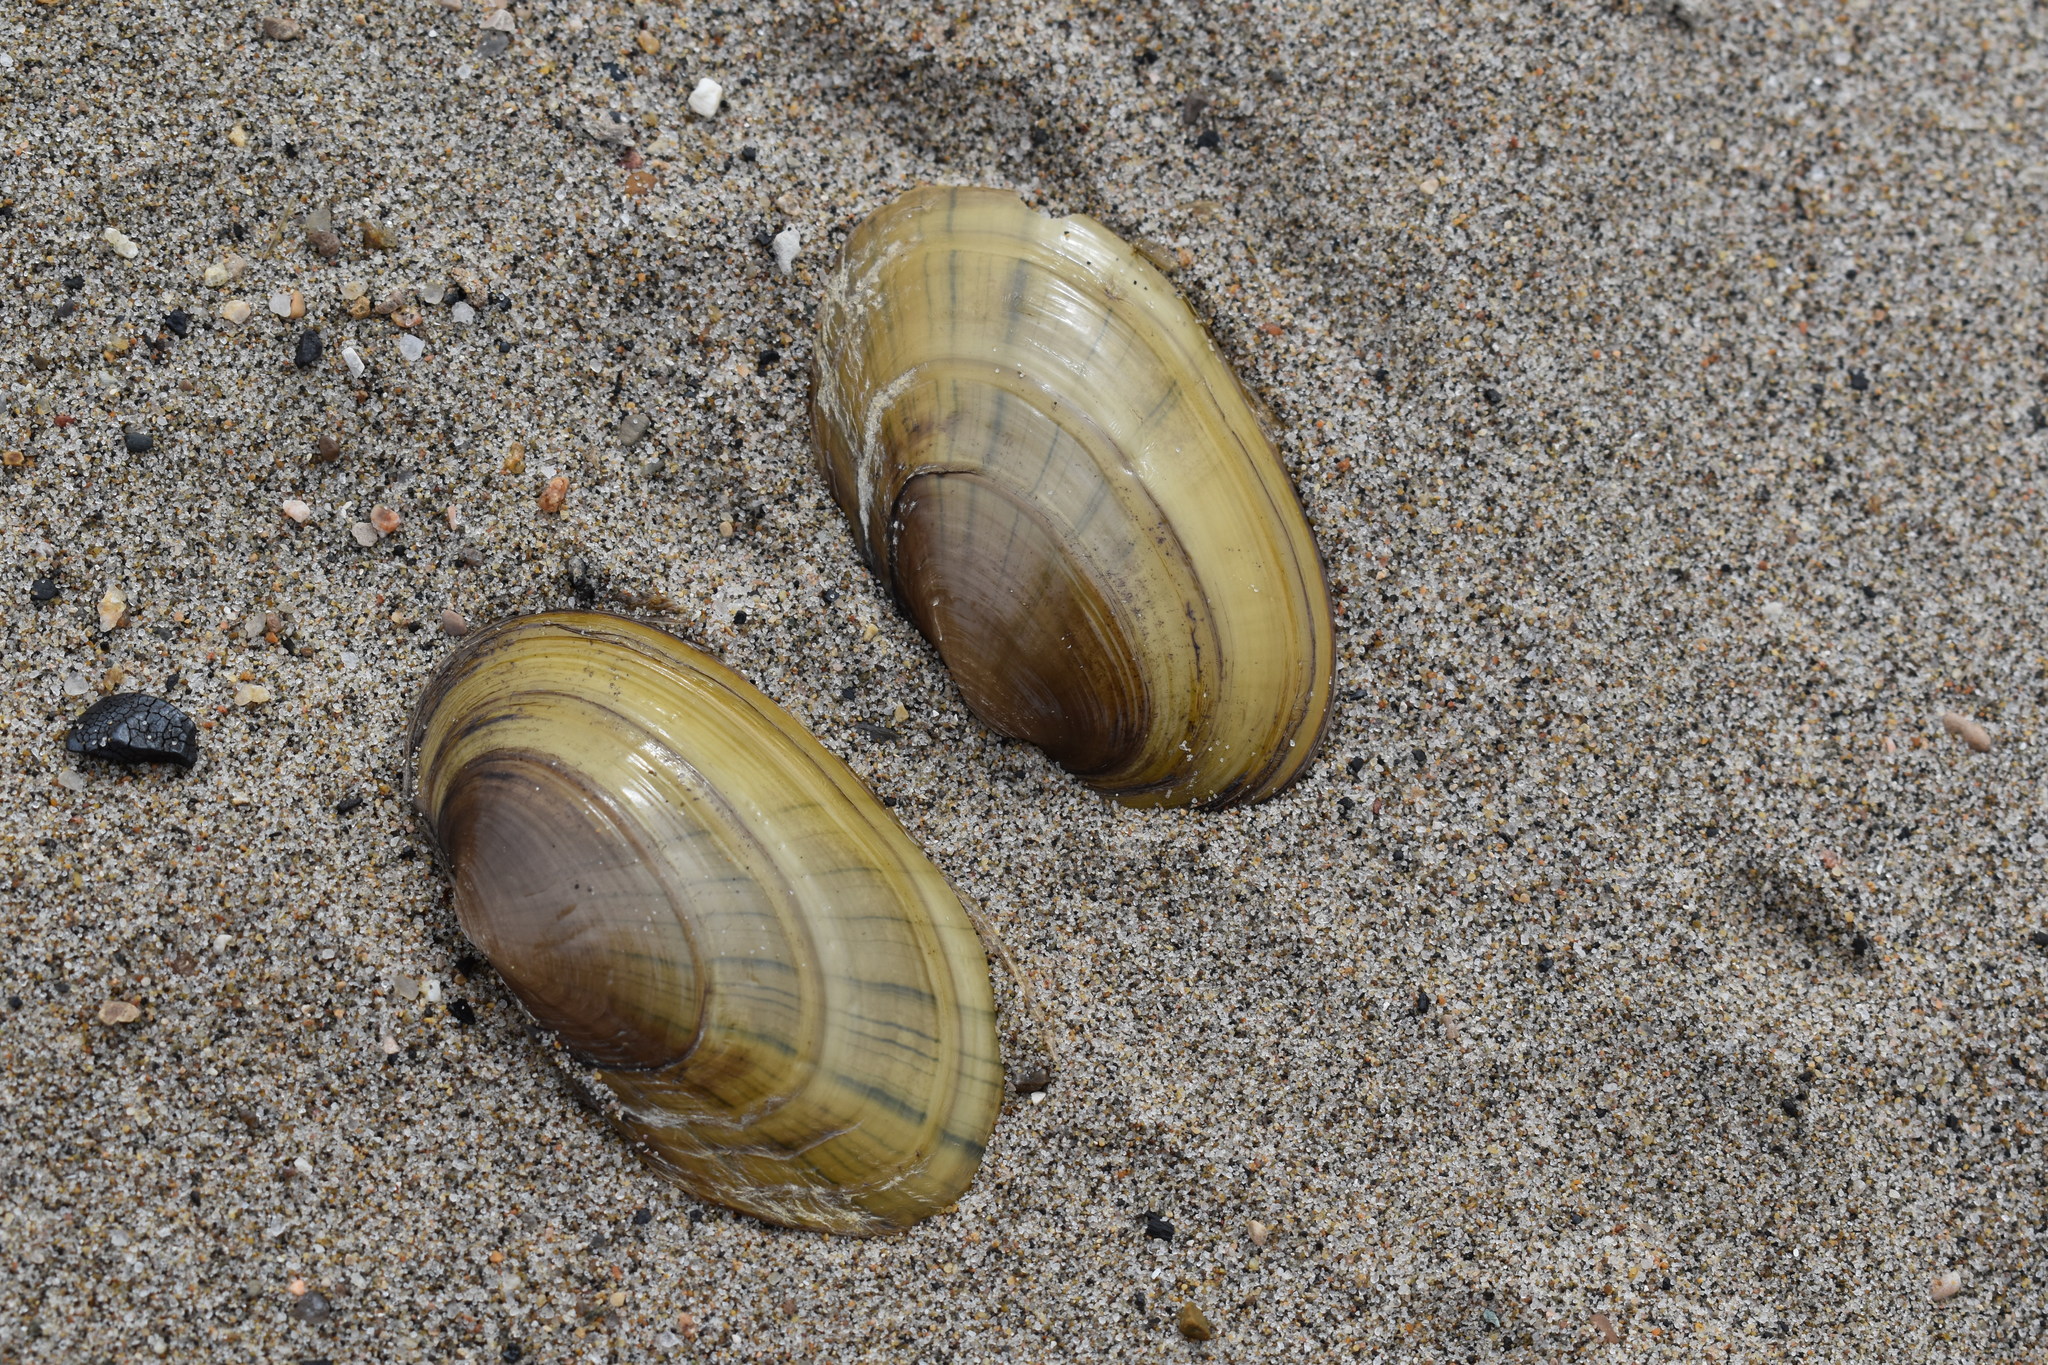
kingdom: Animalia
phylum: Mollusca
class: Bivalvia
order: Unionida
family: Unionidae
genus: Lampsilis
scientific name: Lampsilis siliquoidea
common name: Fatmucket
